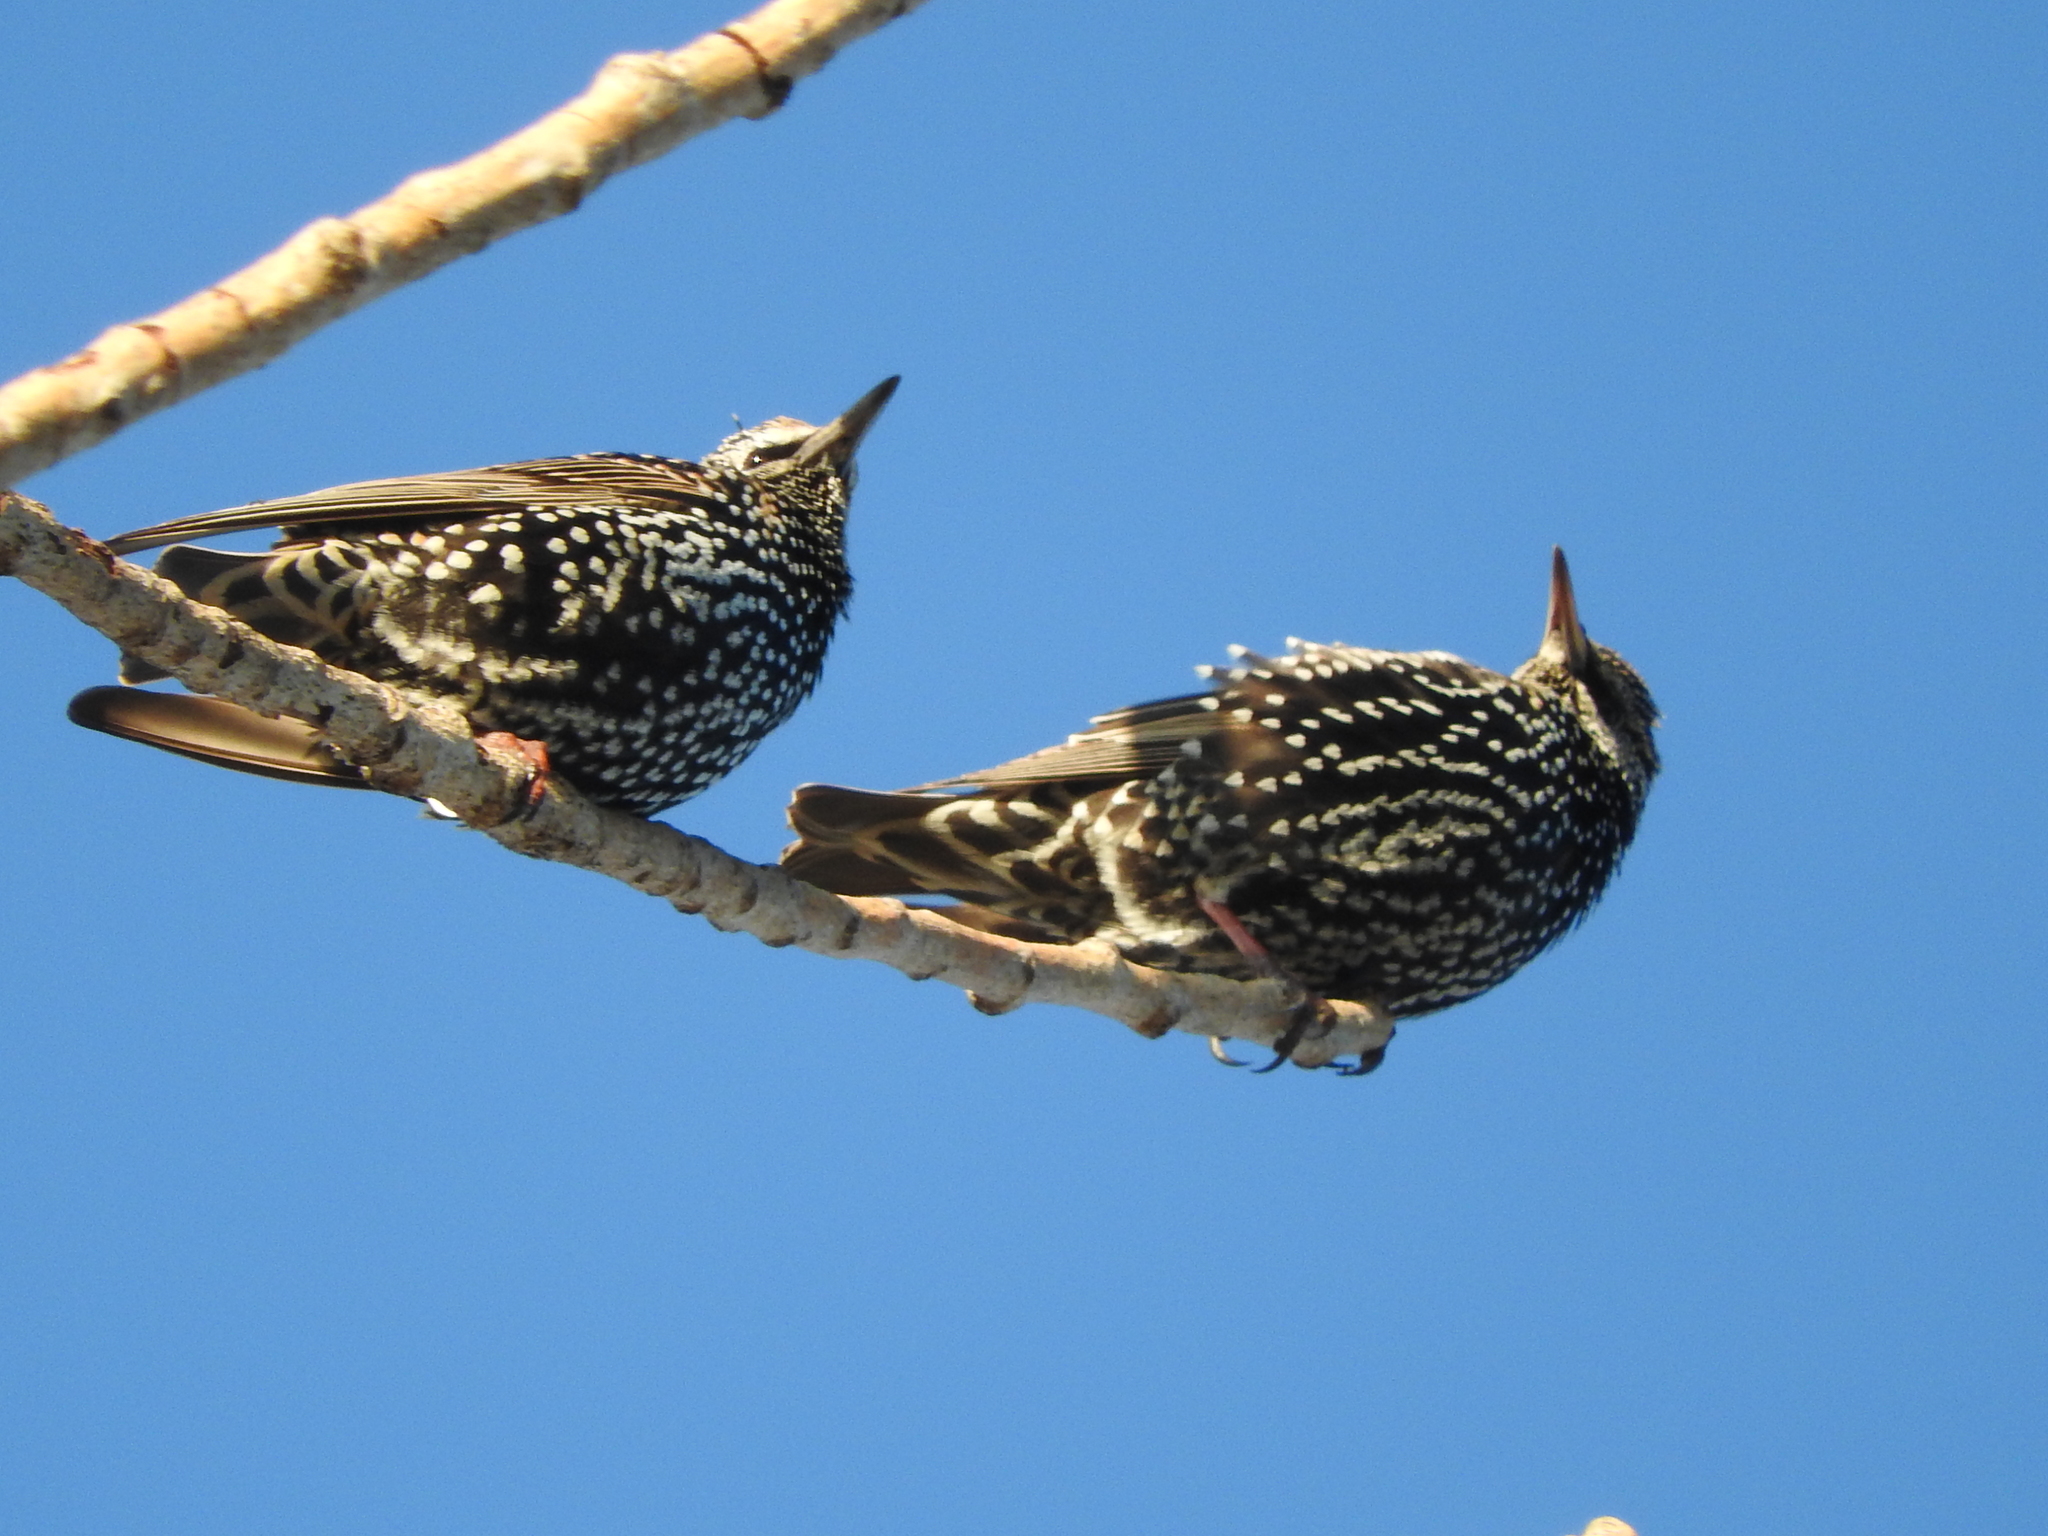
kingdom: Animalia
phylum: Chordata
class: Aves
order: Passeriformes
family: Sturnidae
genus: Sturnus
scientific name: Sturnus vulgaris
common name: Common starling
